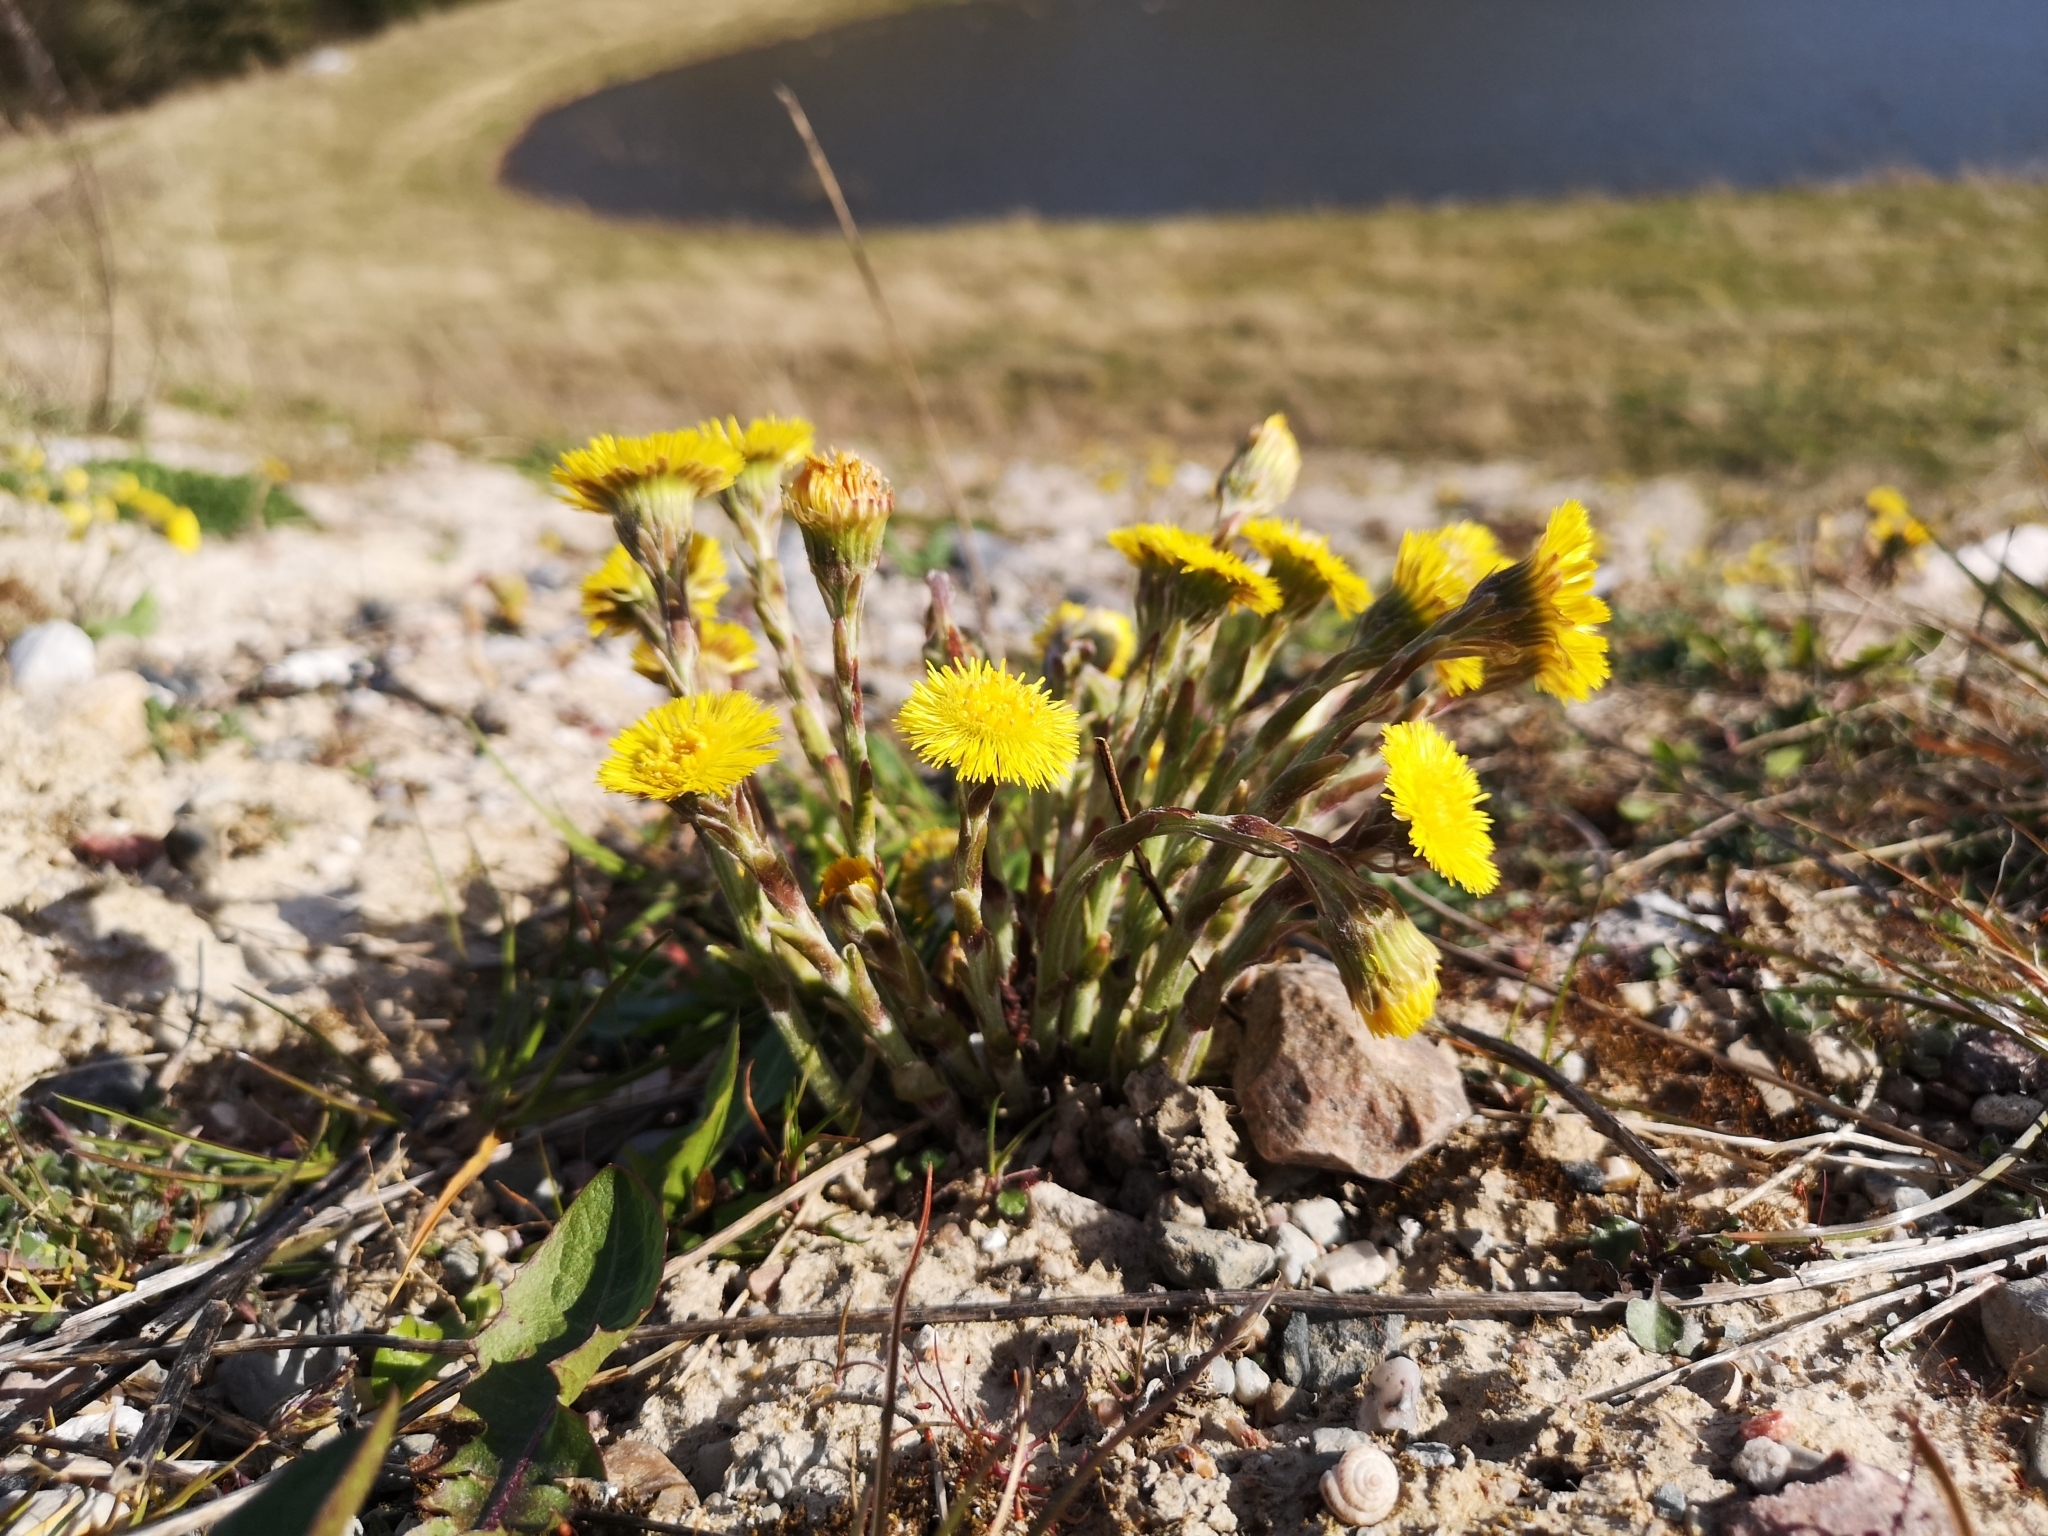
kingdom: Plantae
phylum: Tracheophyta
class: Magnoliopsida
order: Asterales
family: Asteraceae
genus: Tussilago
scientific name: Tussilago farfara
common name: Coltsfoot
